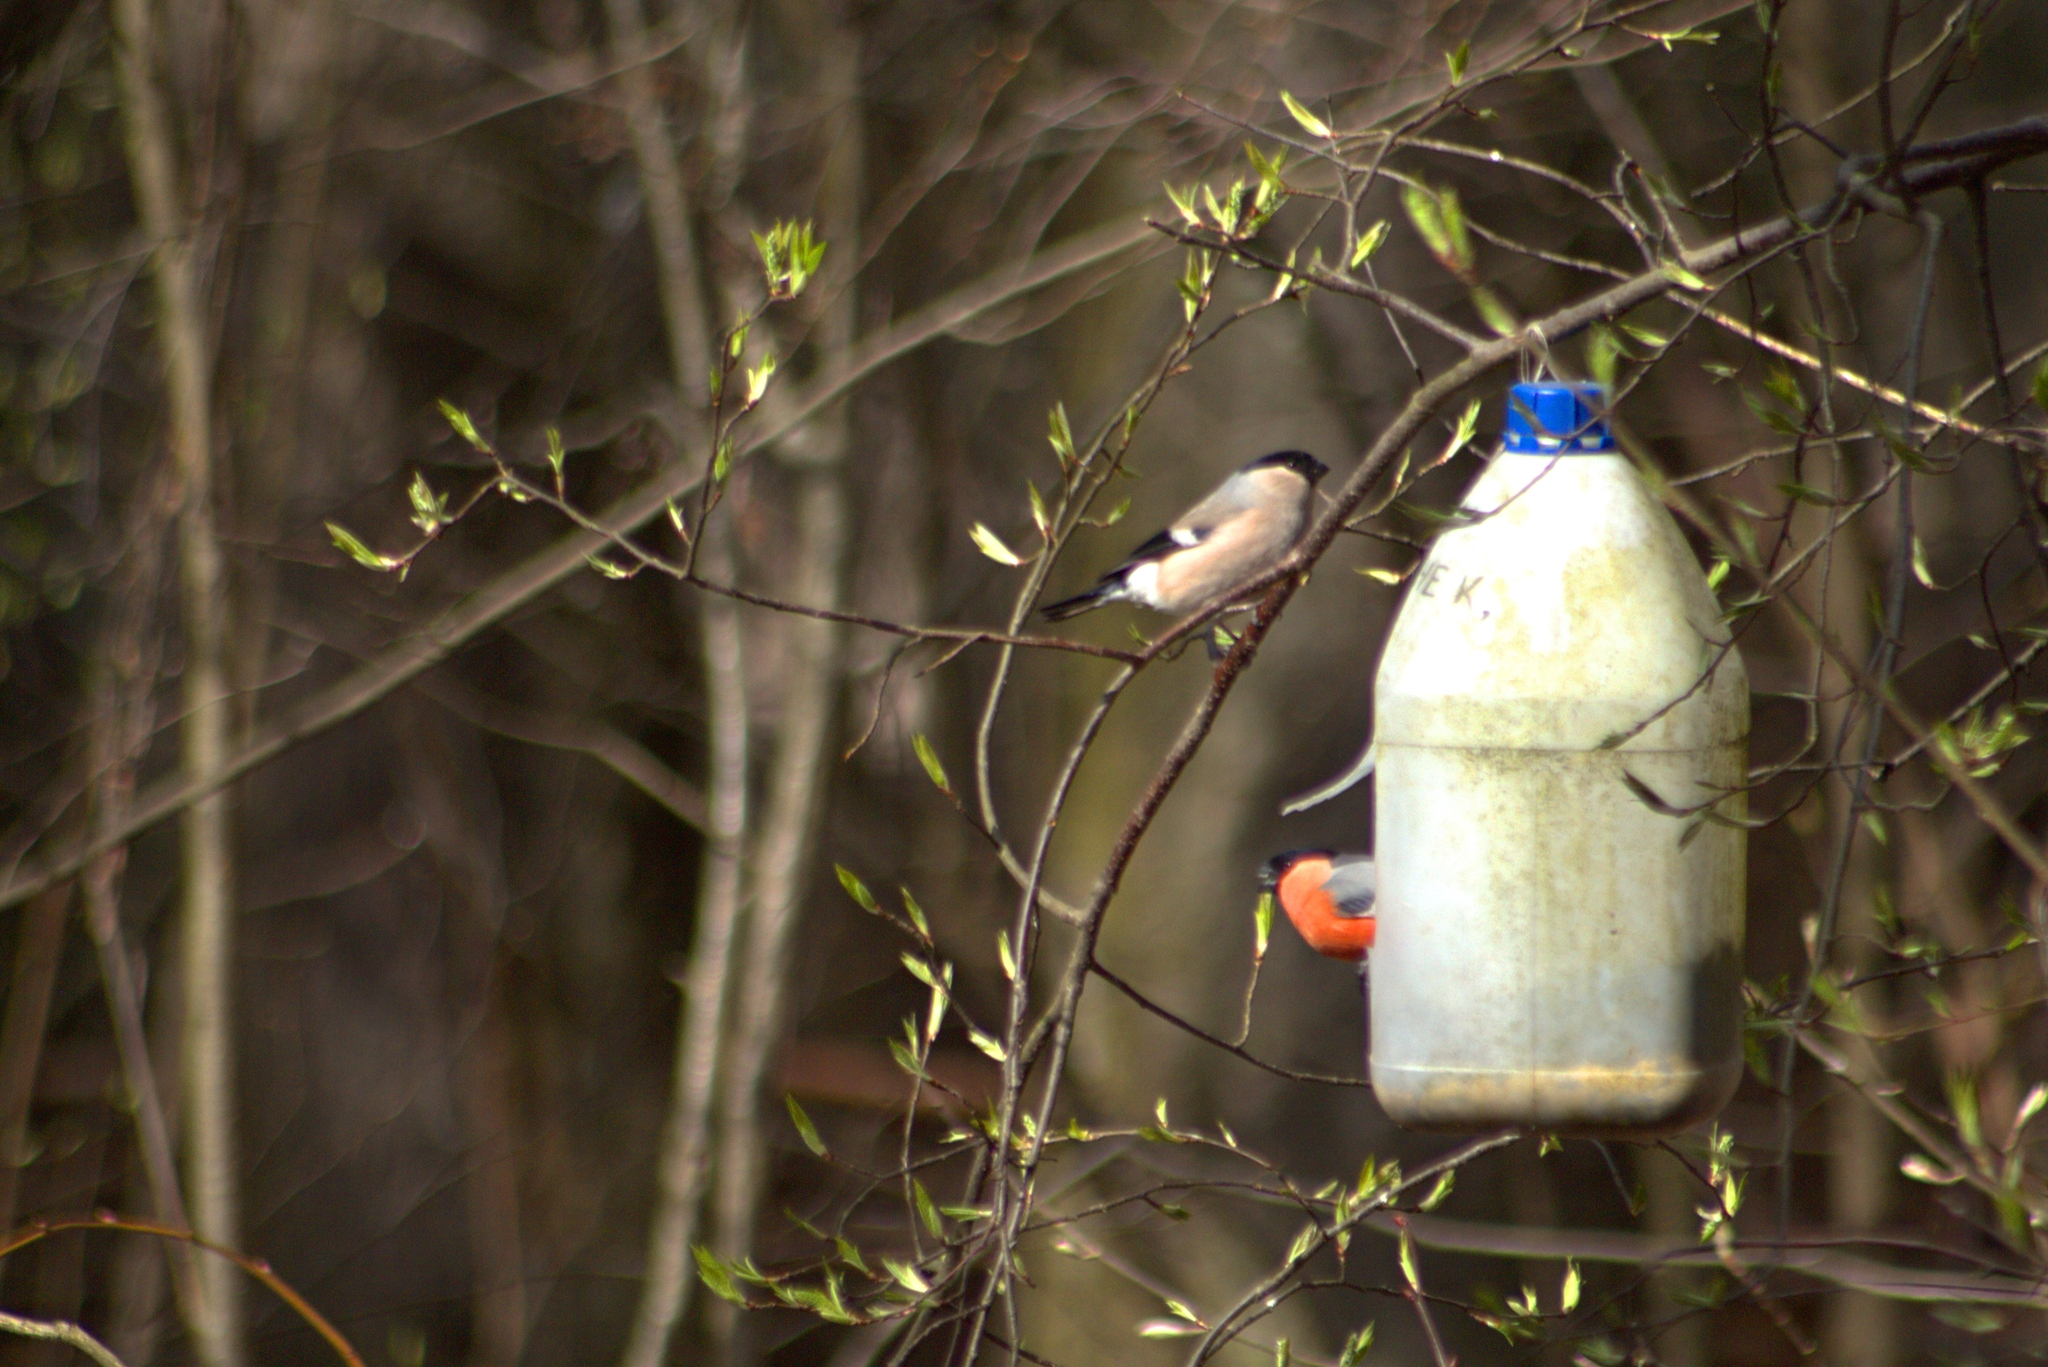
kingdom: Animalia
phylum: Chordata
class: Aves
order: Passeriformes
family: Fringillidae
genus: Pyrrhula
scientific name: Pyrrhula pyrrhula
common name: Eurasian bullfinch
